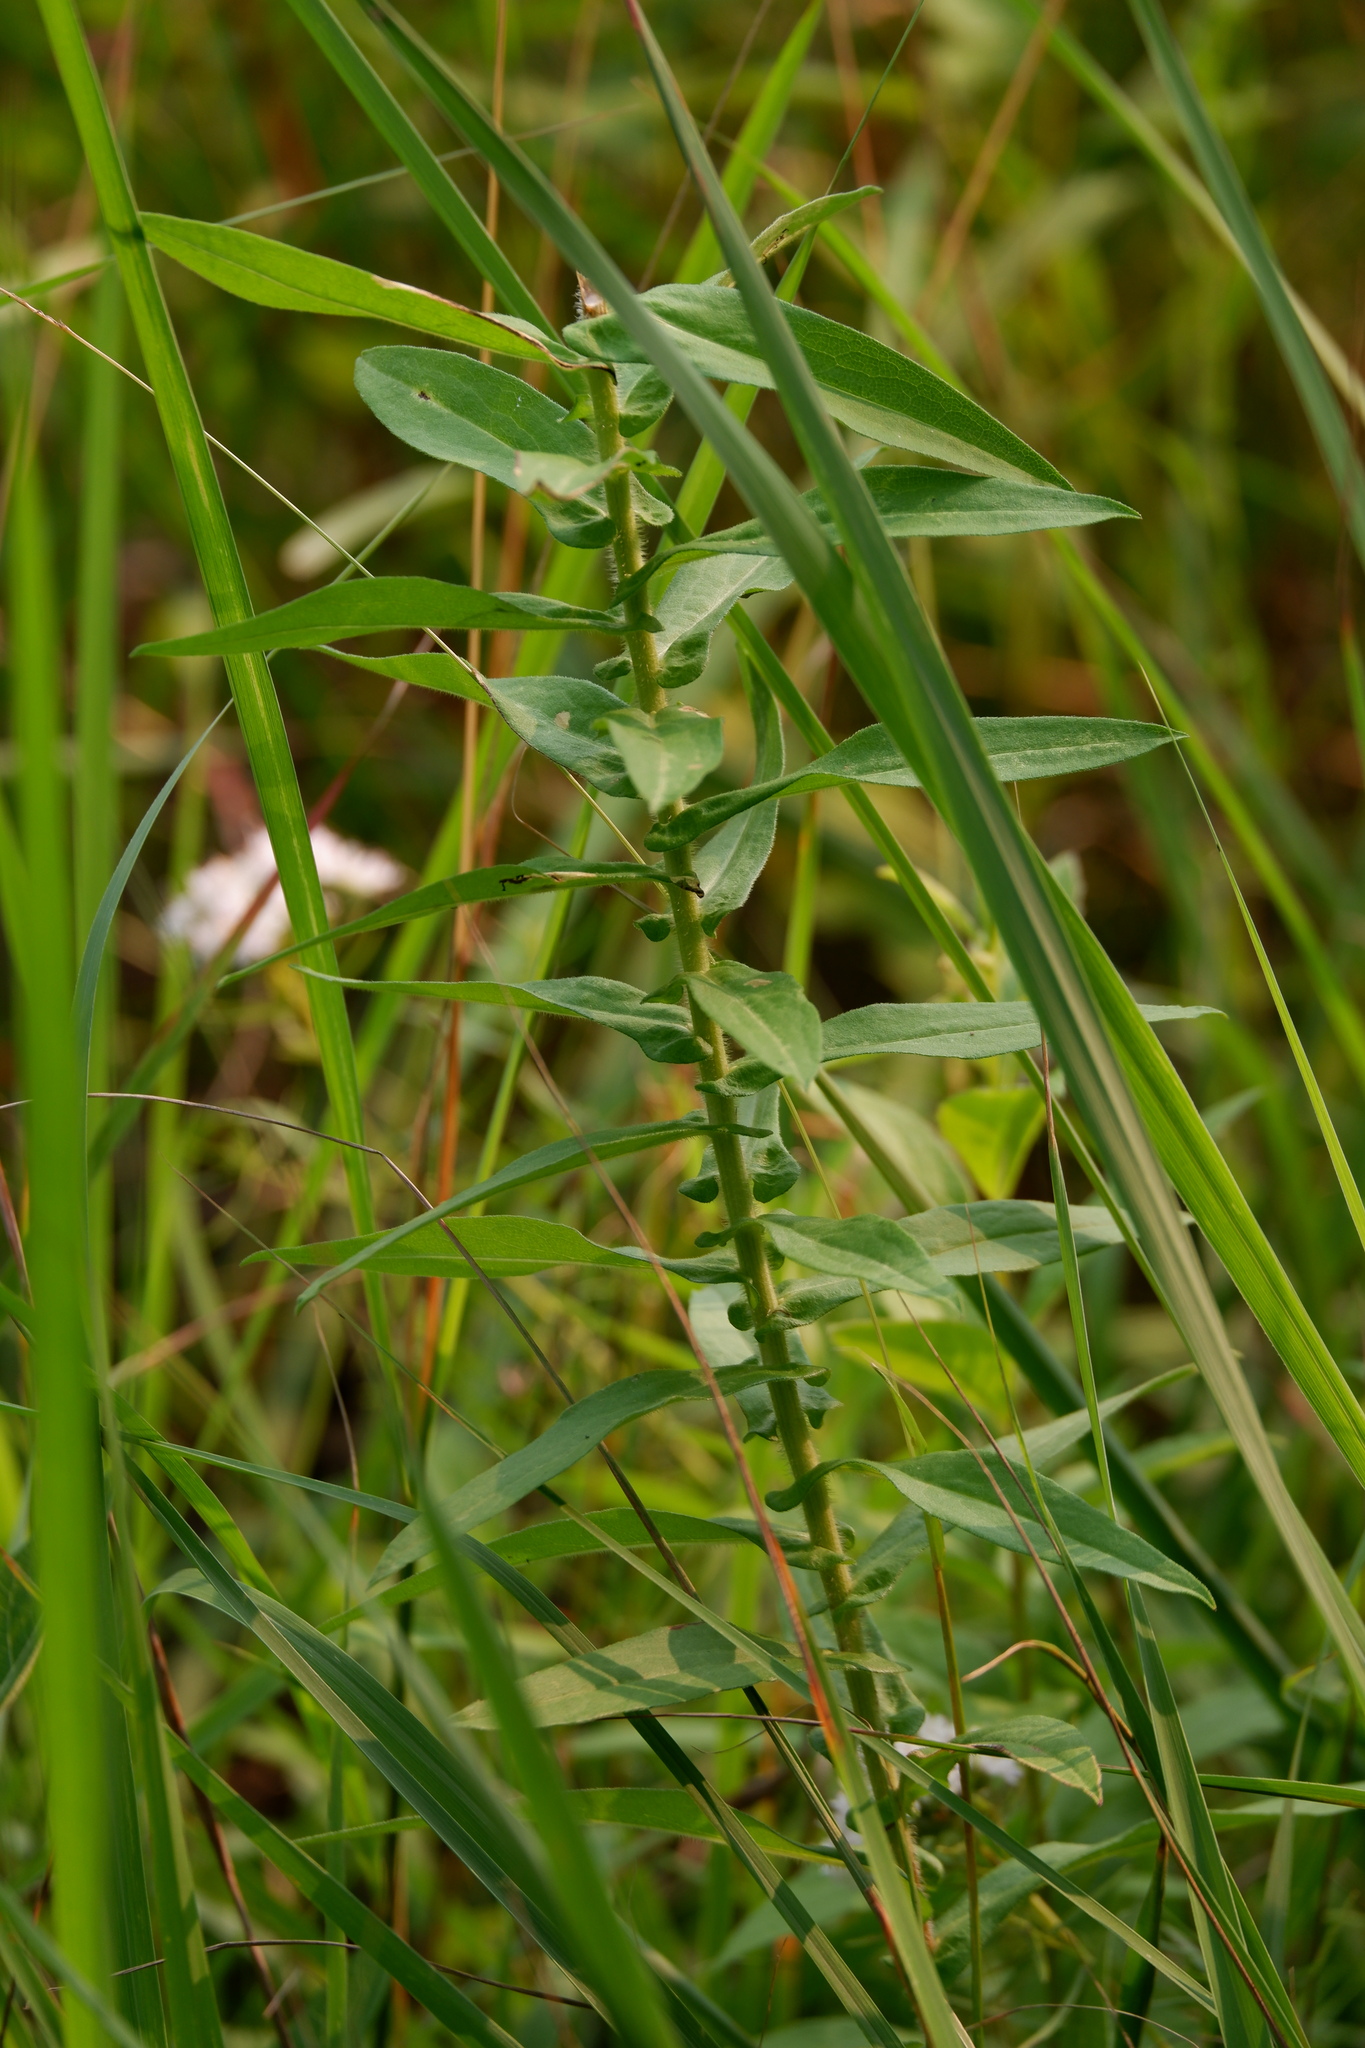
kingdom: Plantae
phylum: Tracheophyta
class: Magnoliopsida
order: Asterales
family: Asteraceae
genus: Symphyotrichum
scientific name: Symphyotrichum novae-angliae
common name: Michaelmas daisy
